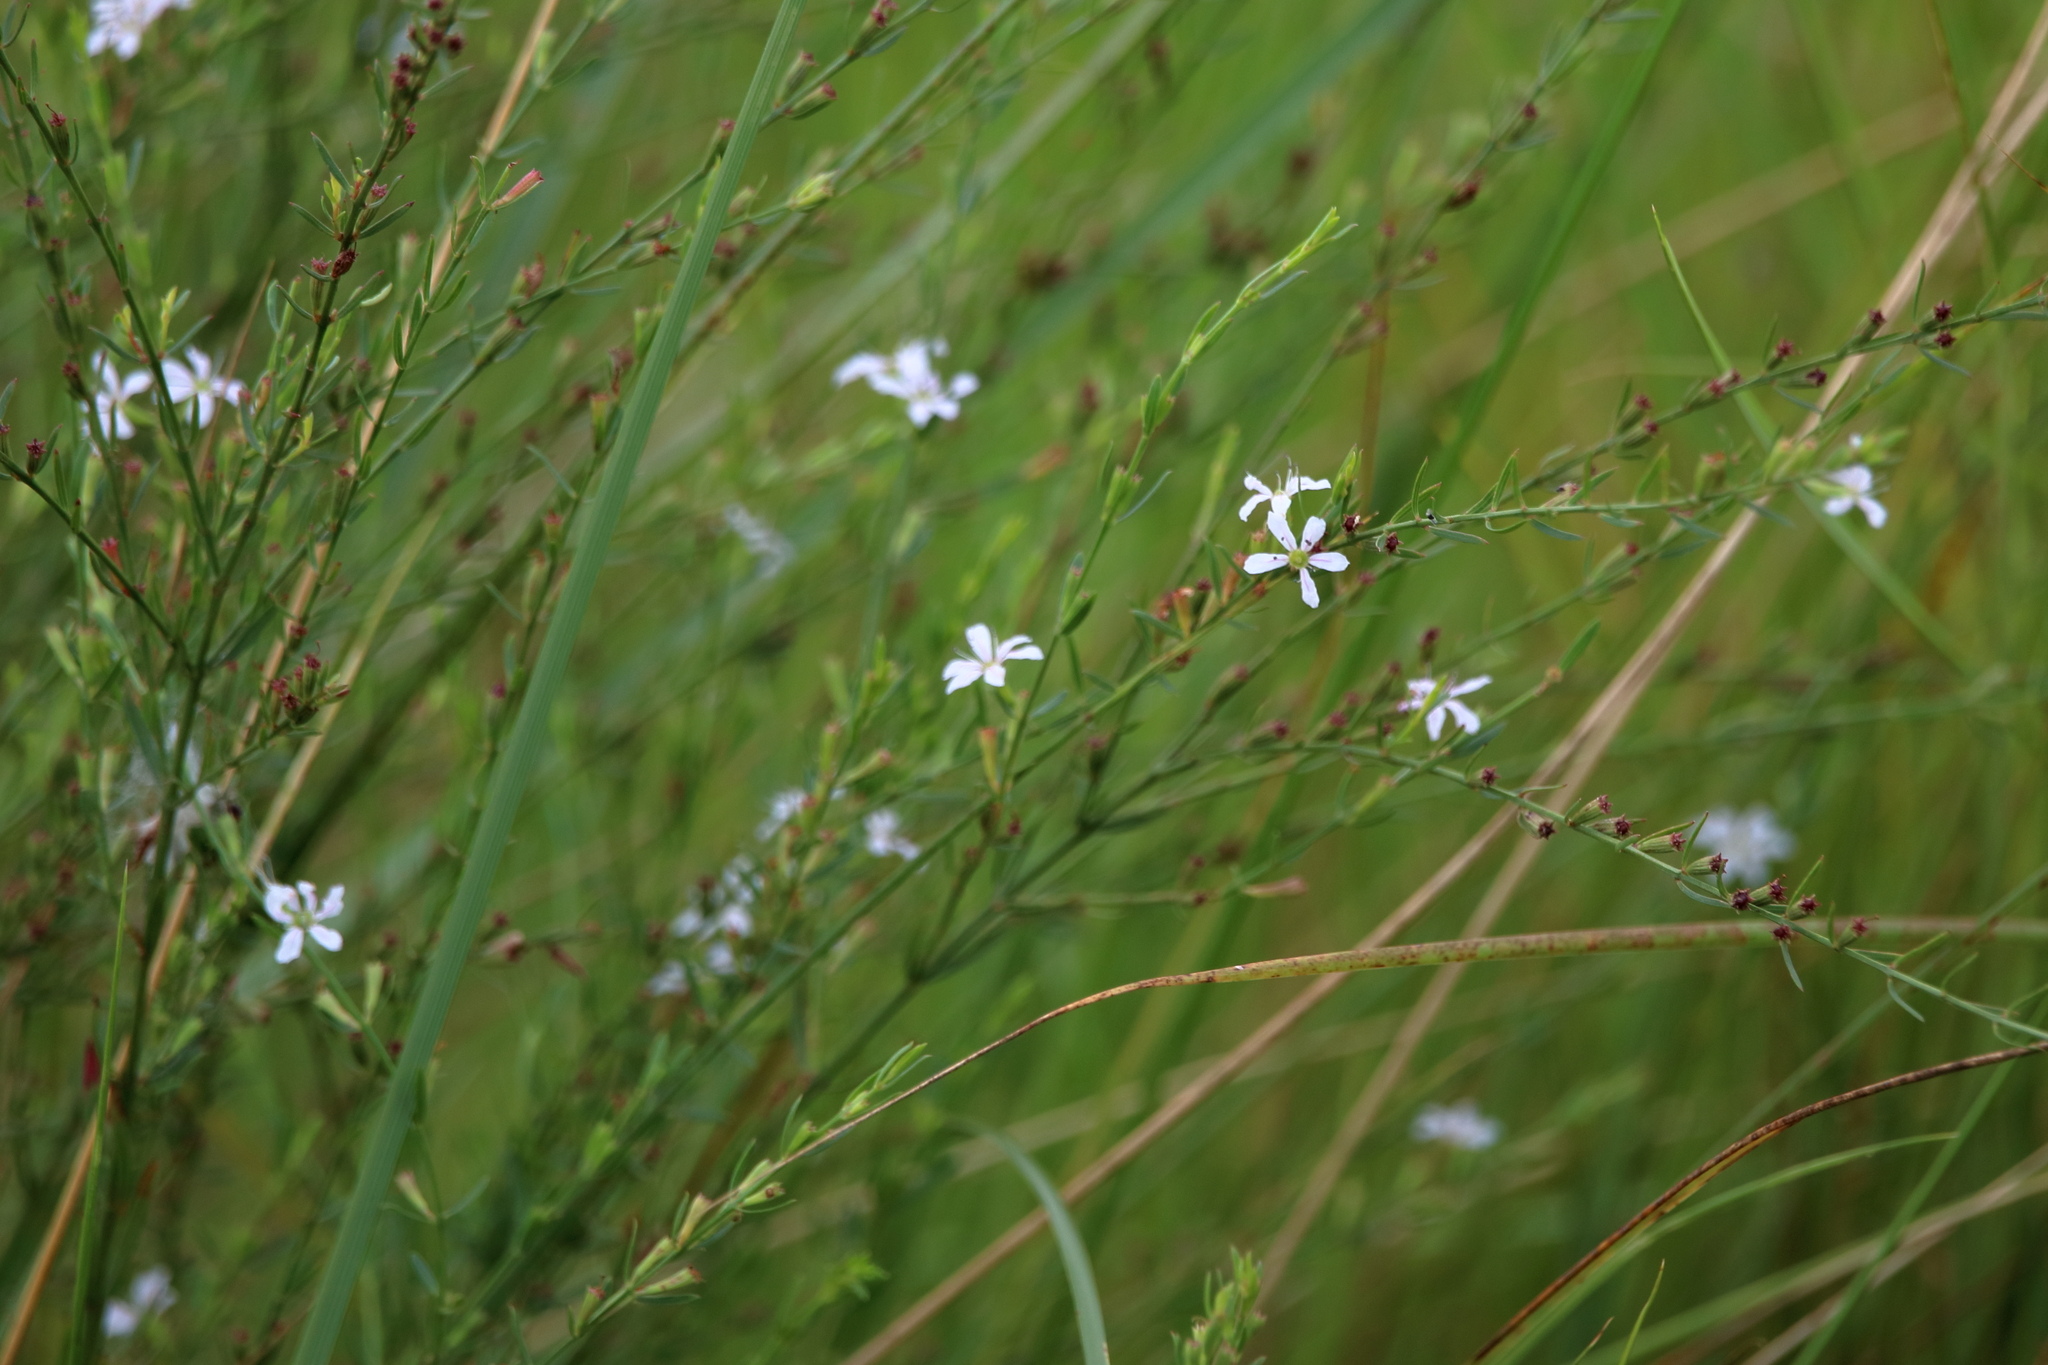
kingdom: Plantae
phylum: Tracheophyta
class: Magnoliopsida
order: Myrtales
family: Lythraceae
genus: Lythrum
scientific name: Lythrum alatum
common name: Winged loosestrife
